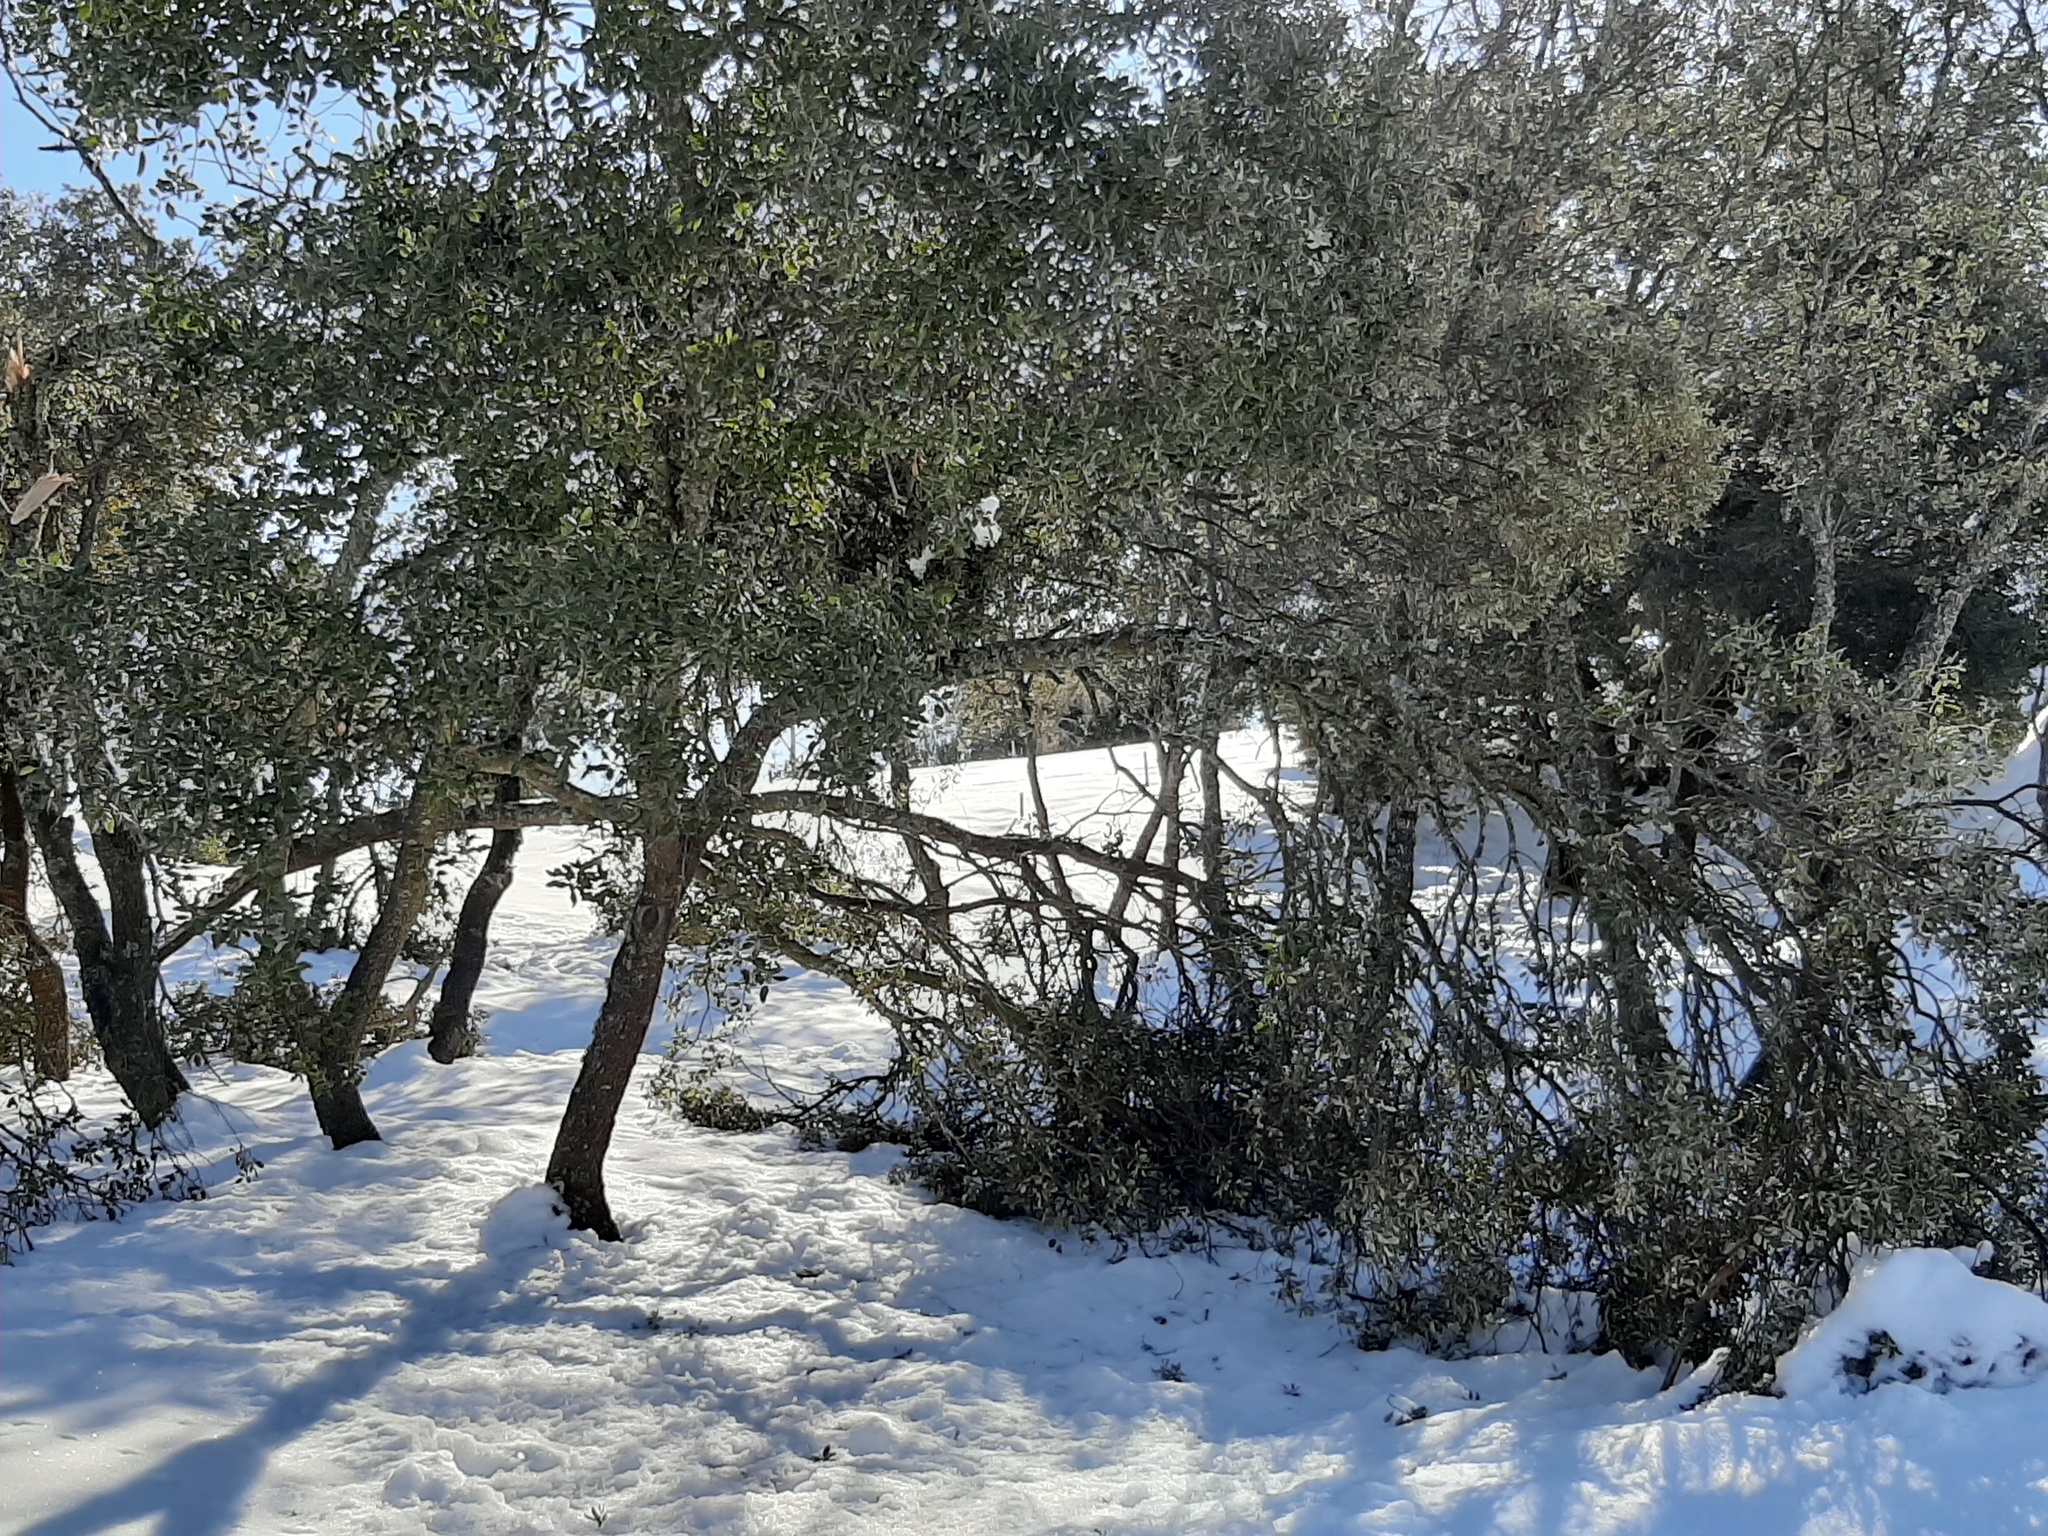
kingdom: Plantae
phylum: Tracheophyta
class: Magnoliopsida
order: Fagales
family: Fagaceae
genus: Quercus
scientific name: Quercus rotundifolia
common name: Holm oak
